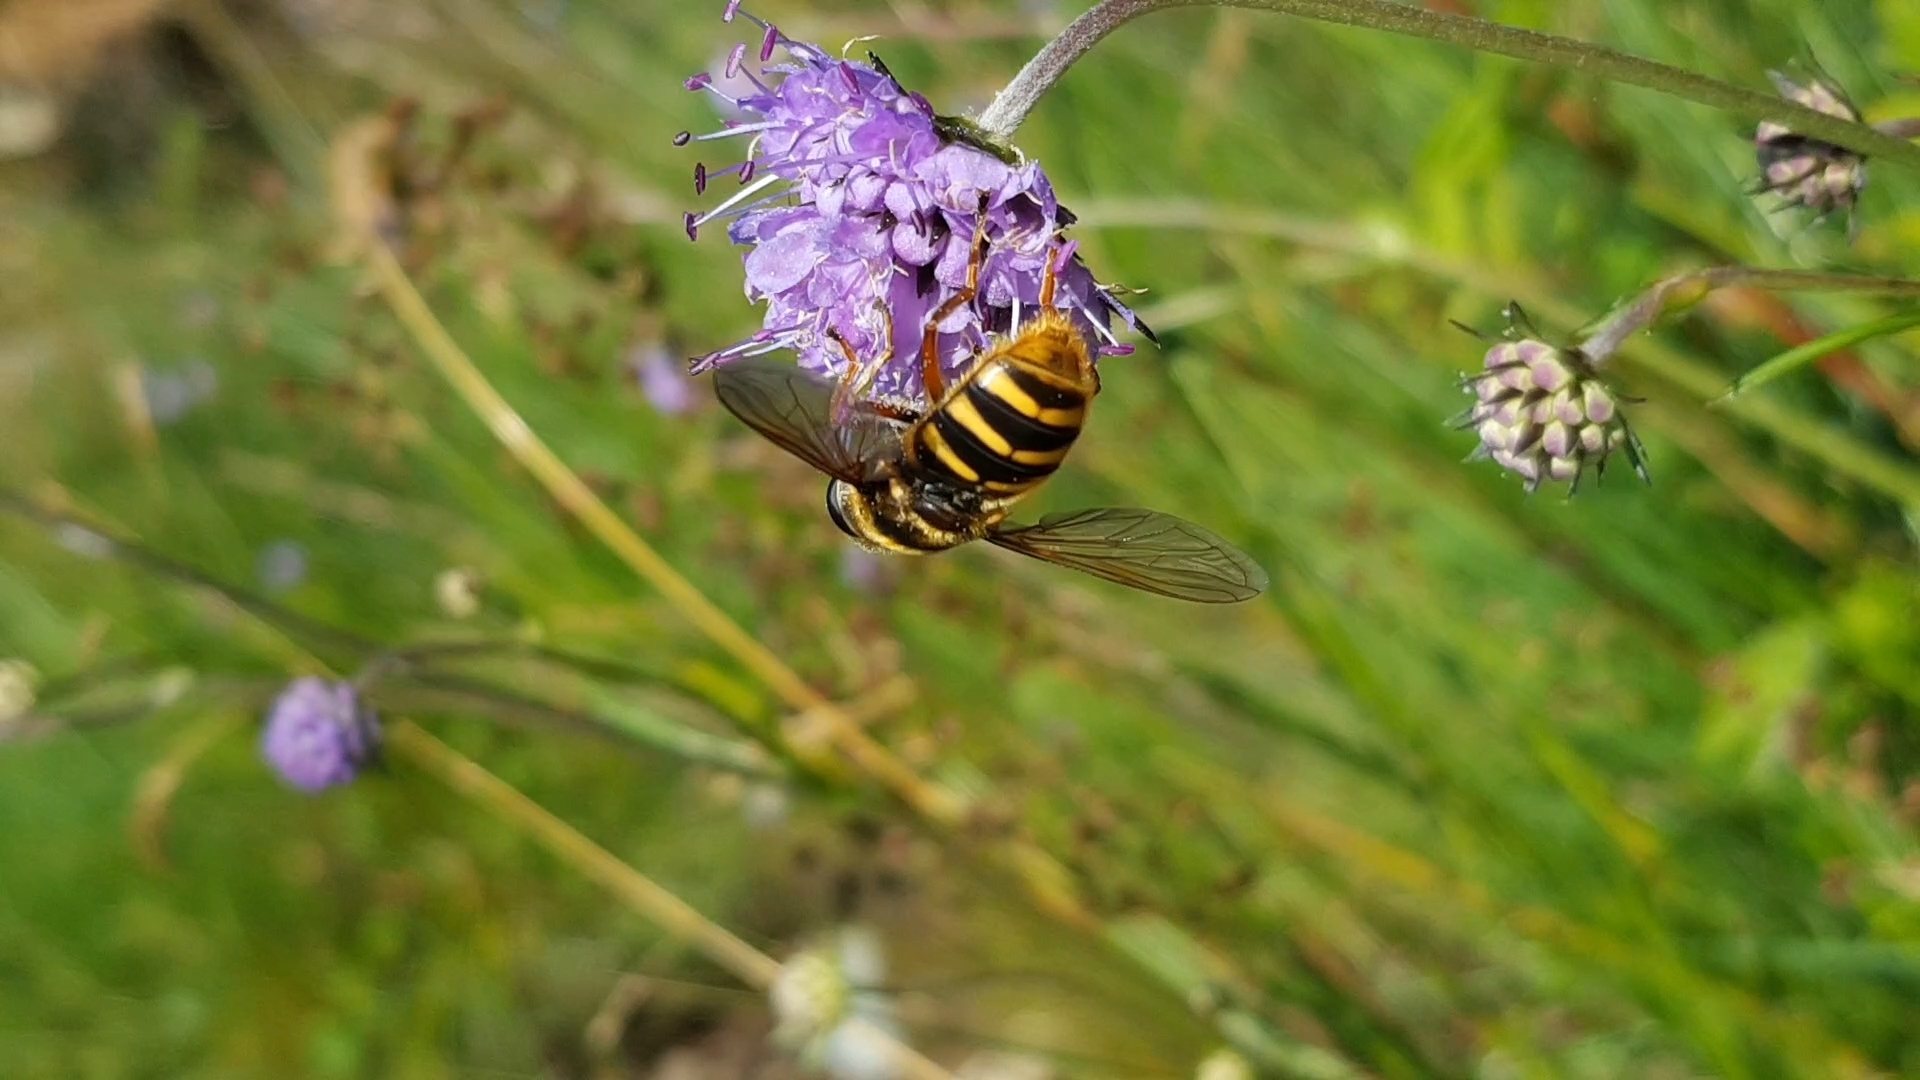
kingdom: Animalia
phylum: Arthropoda
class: Insecta
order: Diptera
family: Syrphidae
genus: Sericomyia
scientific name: Sericomyia silentis
